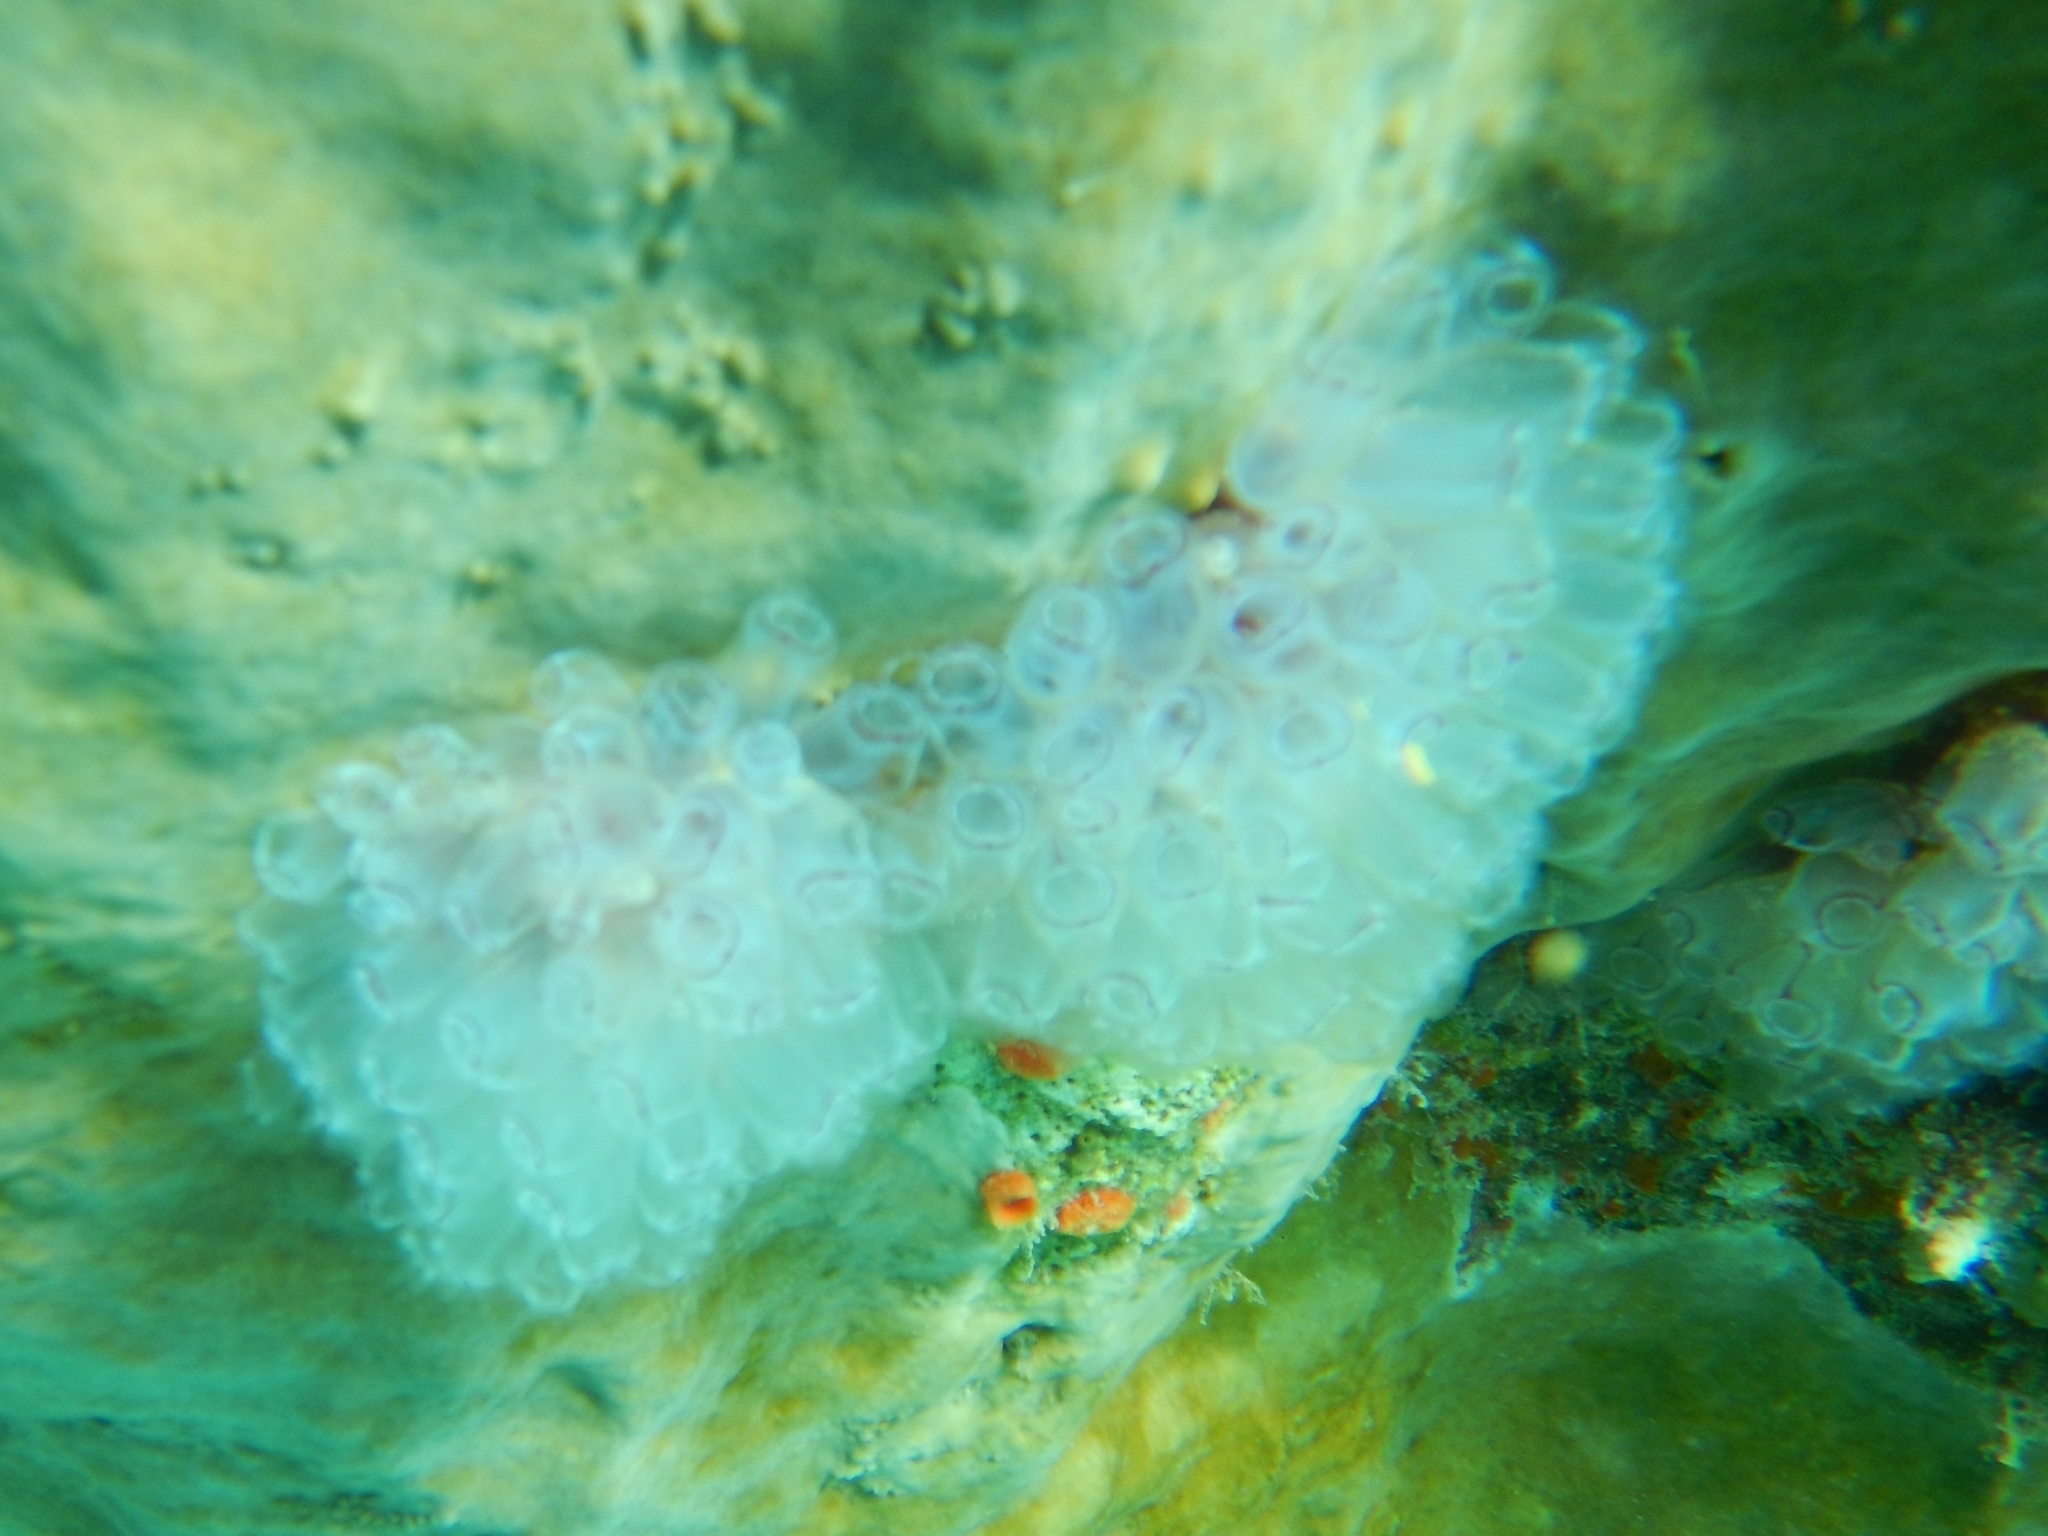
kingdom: Animalia
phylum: Chordata
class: Ascidiacea
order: Aplousobranchia
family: Clavelinidae
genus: Clavelina
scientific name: Clavelina picta
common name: Painted tunicate
